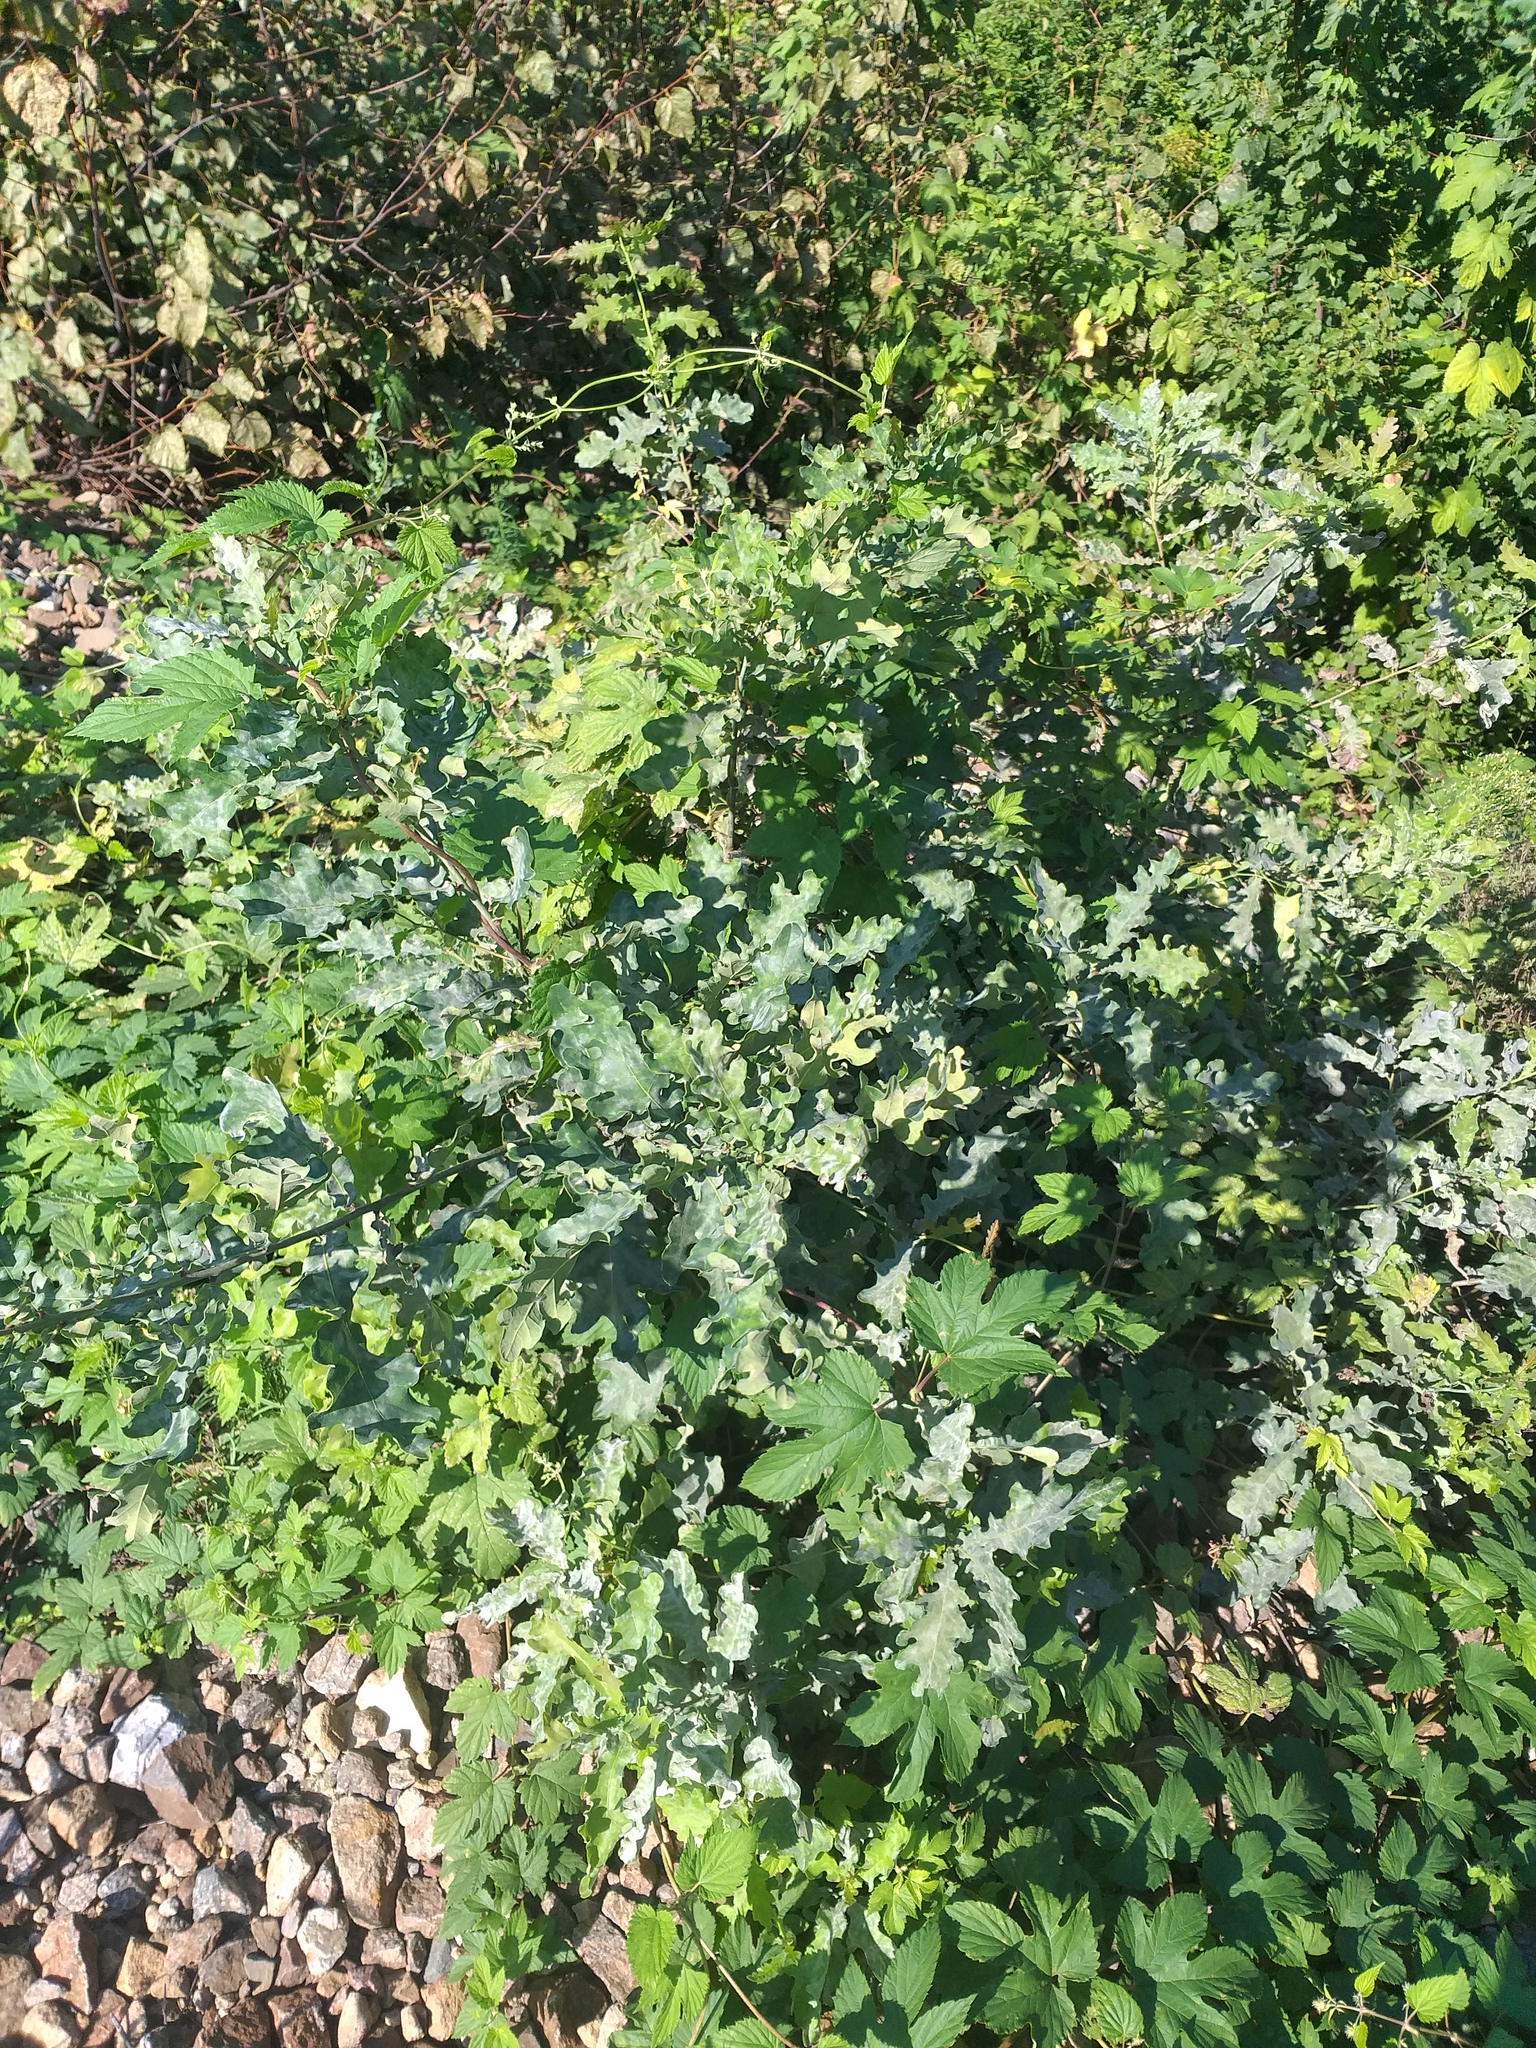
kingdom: Plantae
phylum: Tracheophyta
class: Magnoliopsida
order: Fagales
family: Fagaceae
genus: Quercus
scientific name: Quercus robur
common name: Pedunculate oak
